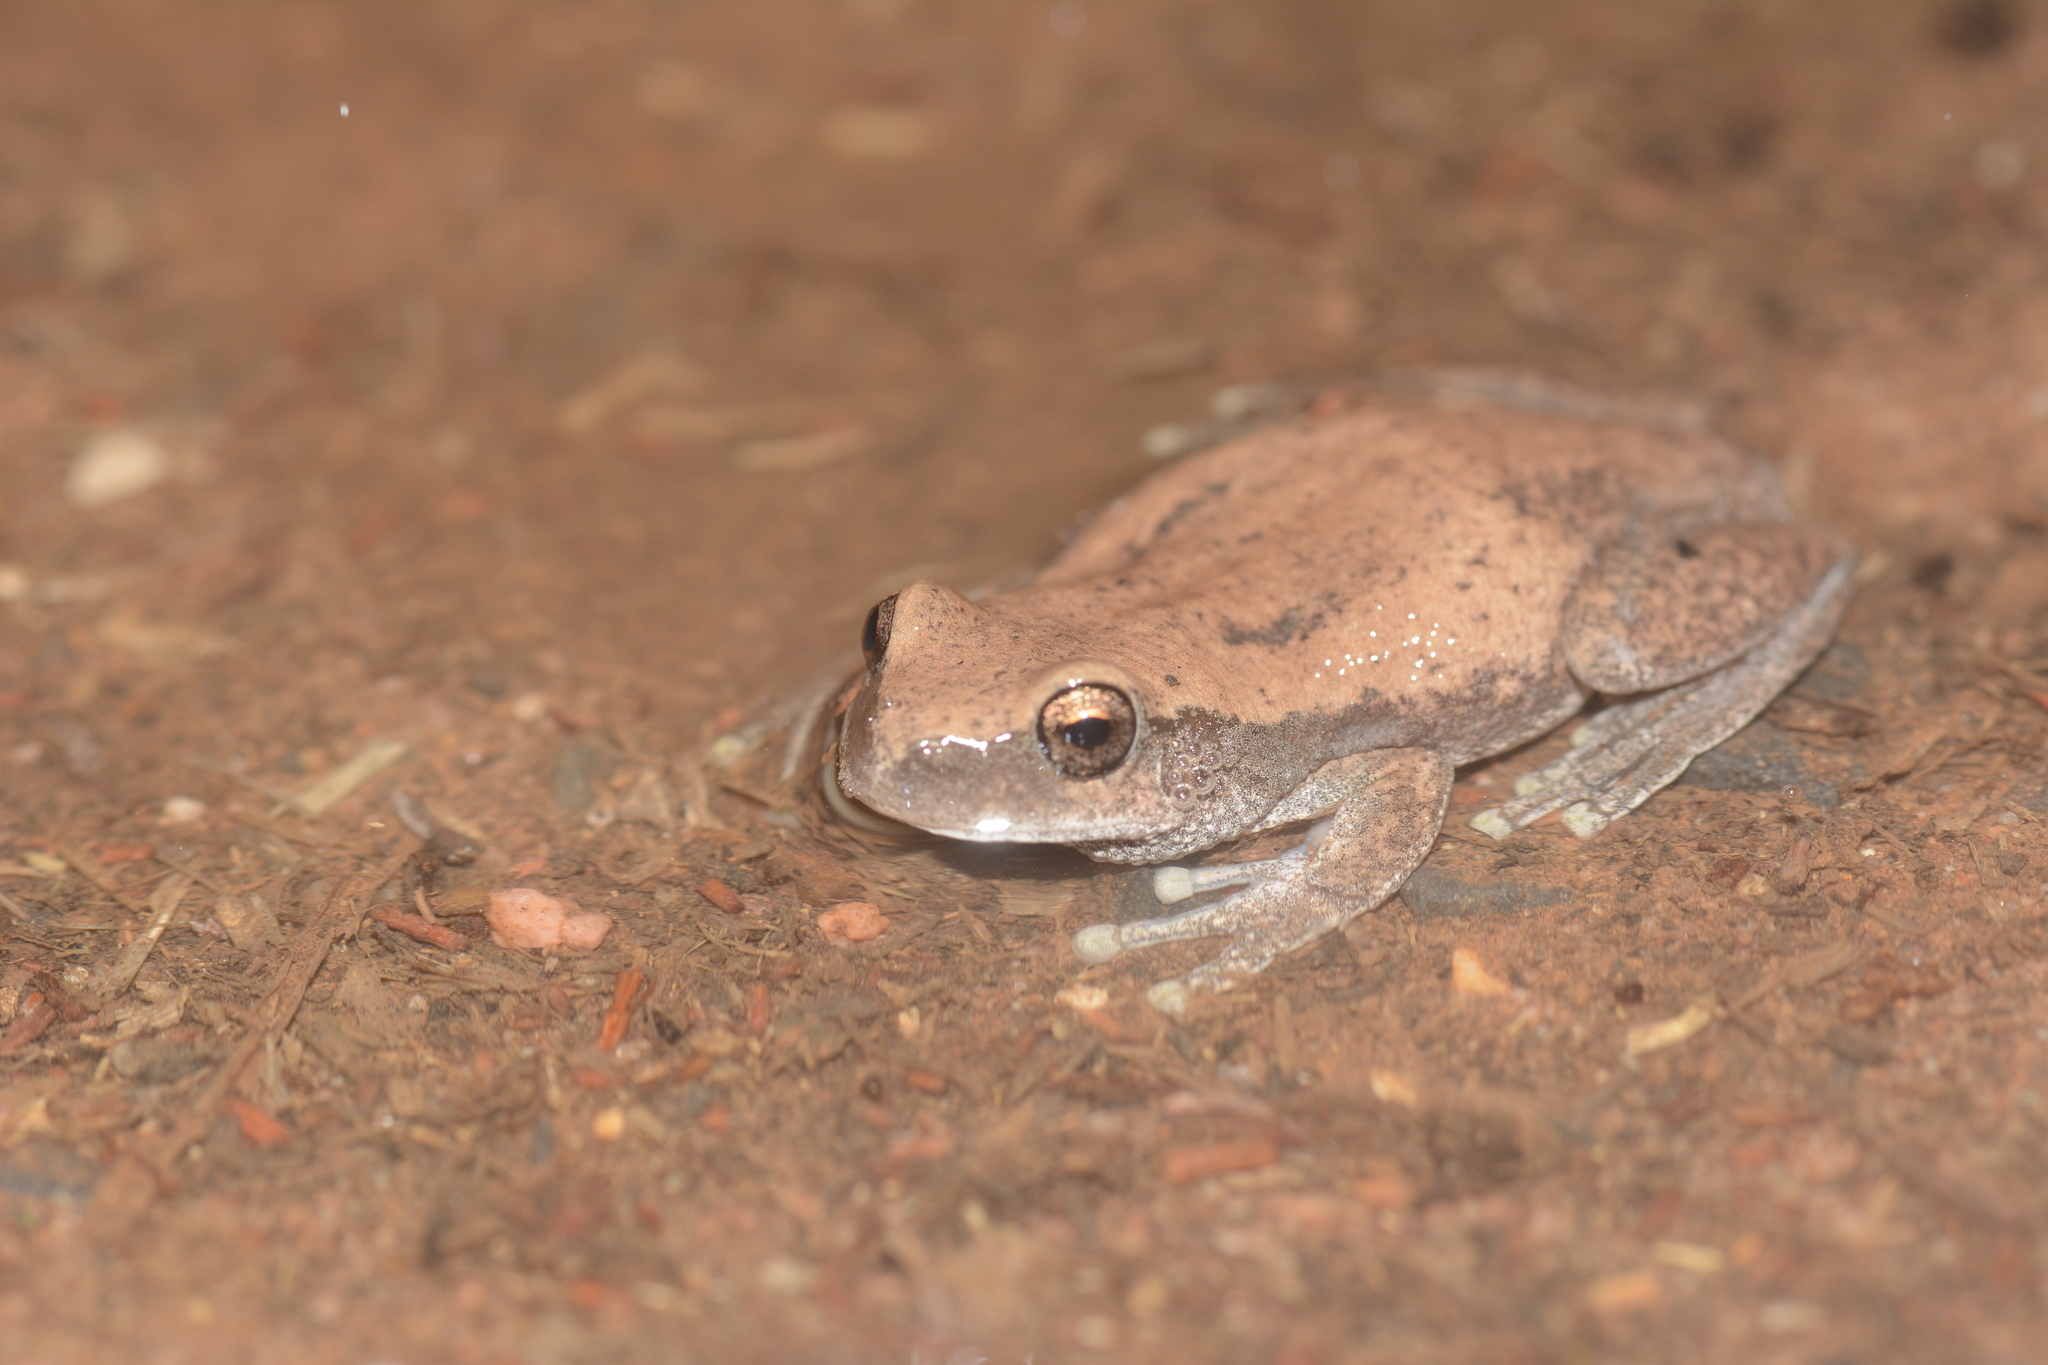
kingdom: Animalia
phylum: Chordata
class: Amphibia
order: Anura
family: Pelodryadidae
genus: Litoria
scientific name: Litoria rubella
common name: Desert tree frog
